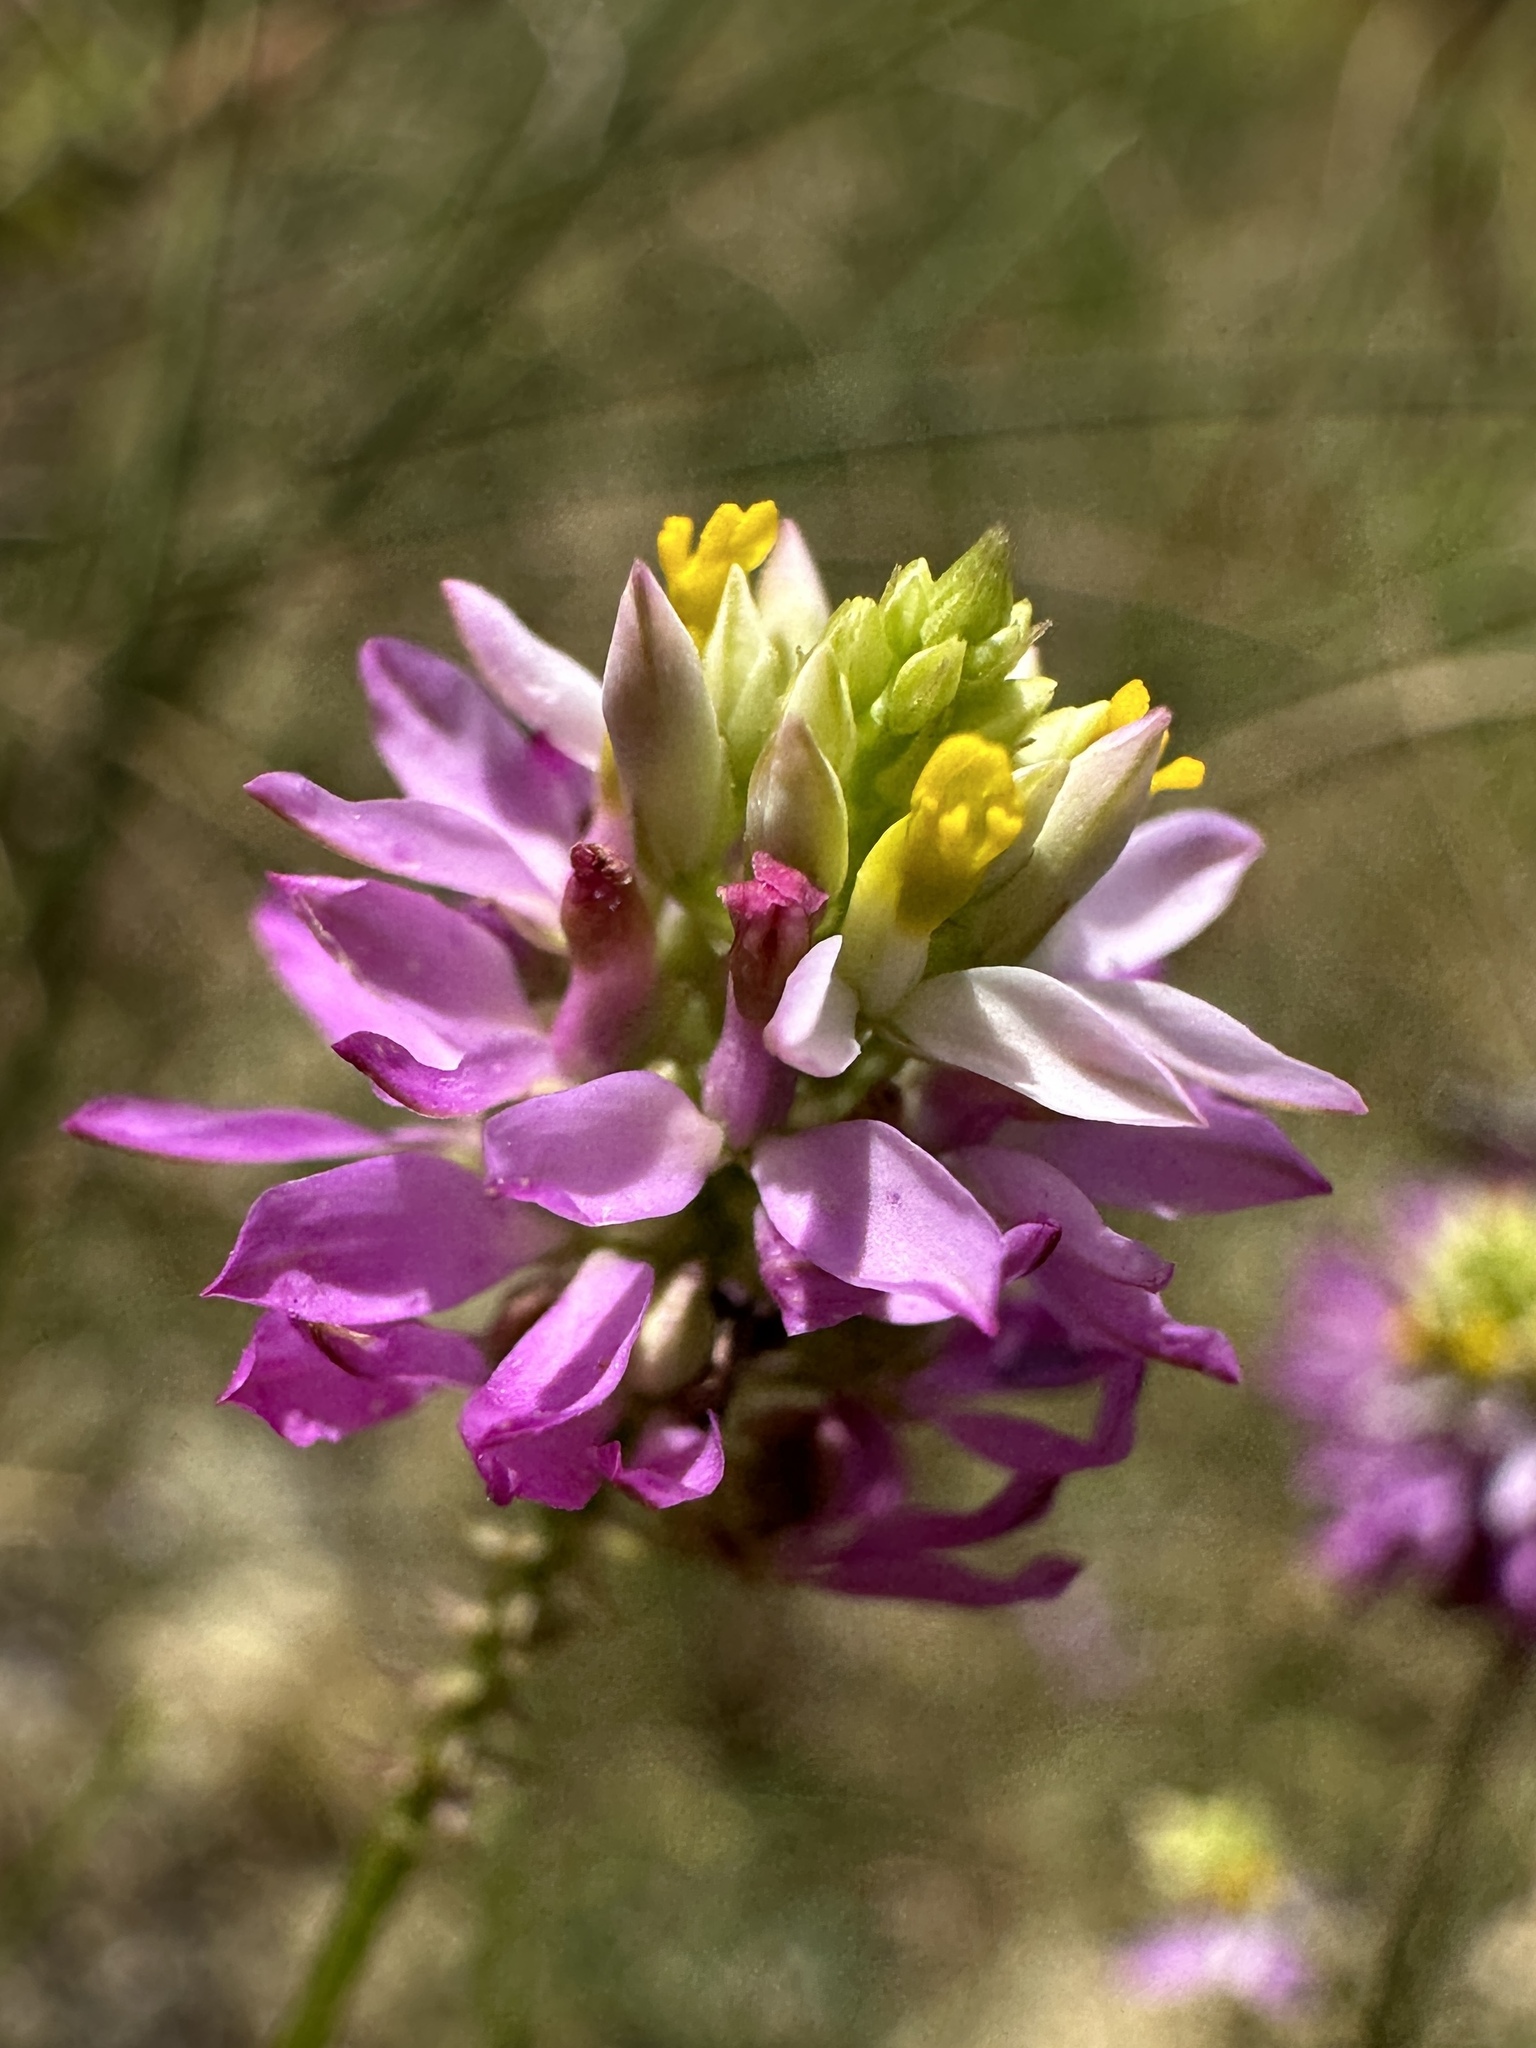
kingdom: Plantae
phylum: Tracheophyta
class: Magnoliopsida
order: Fabales
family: Polygalaceae
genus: Polygala
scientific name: Polygala curtissii
